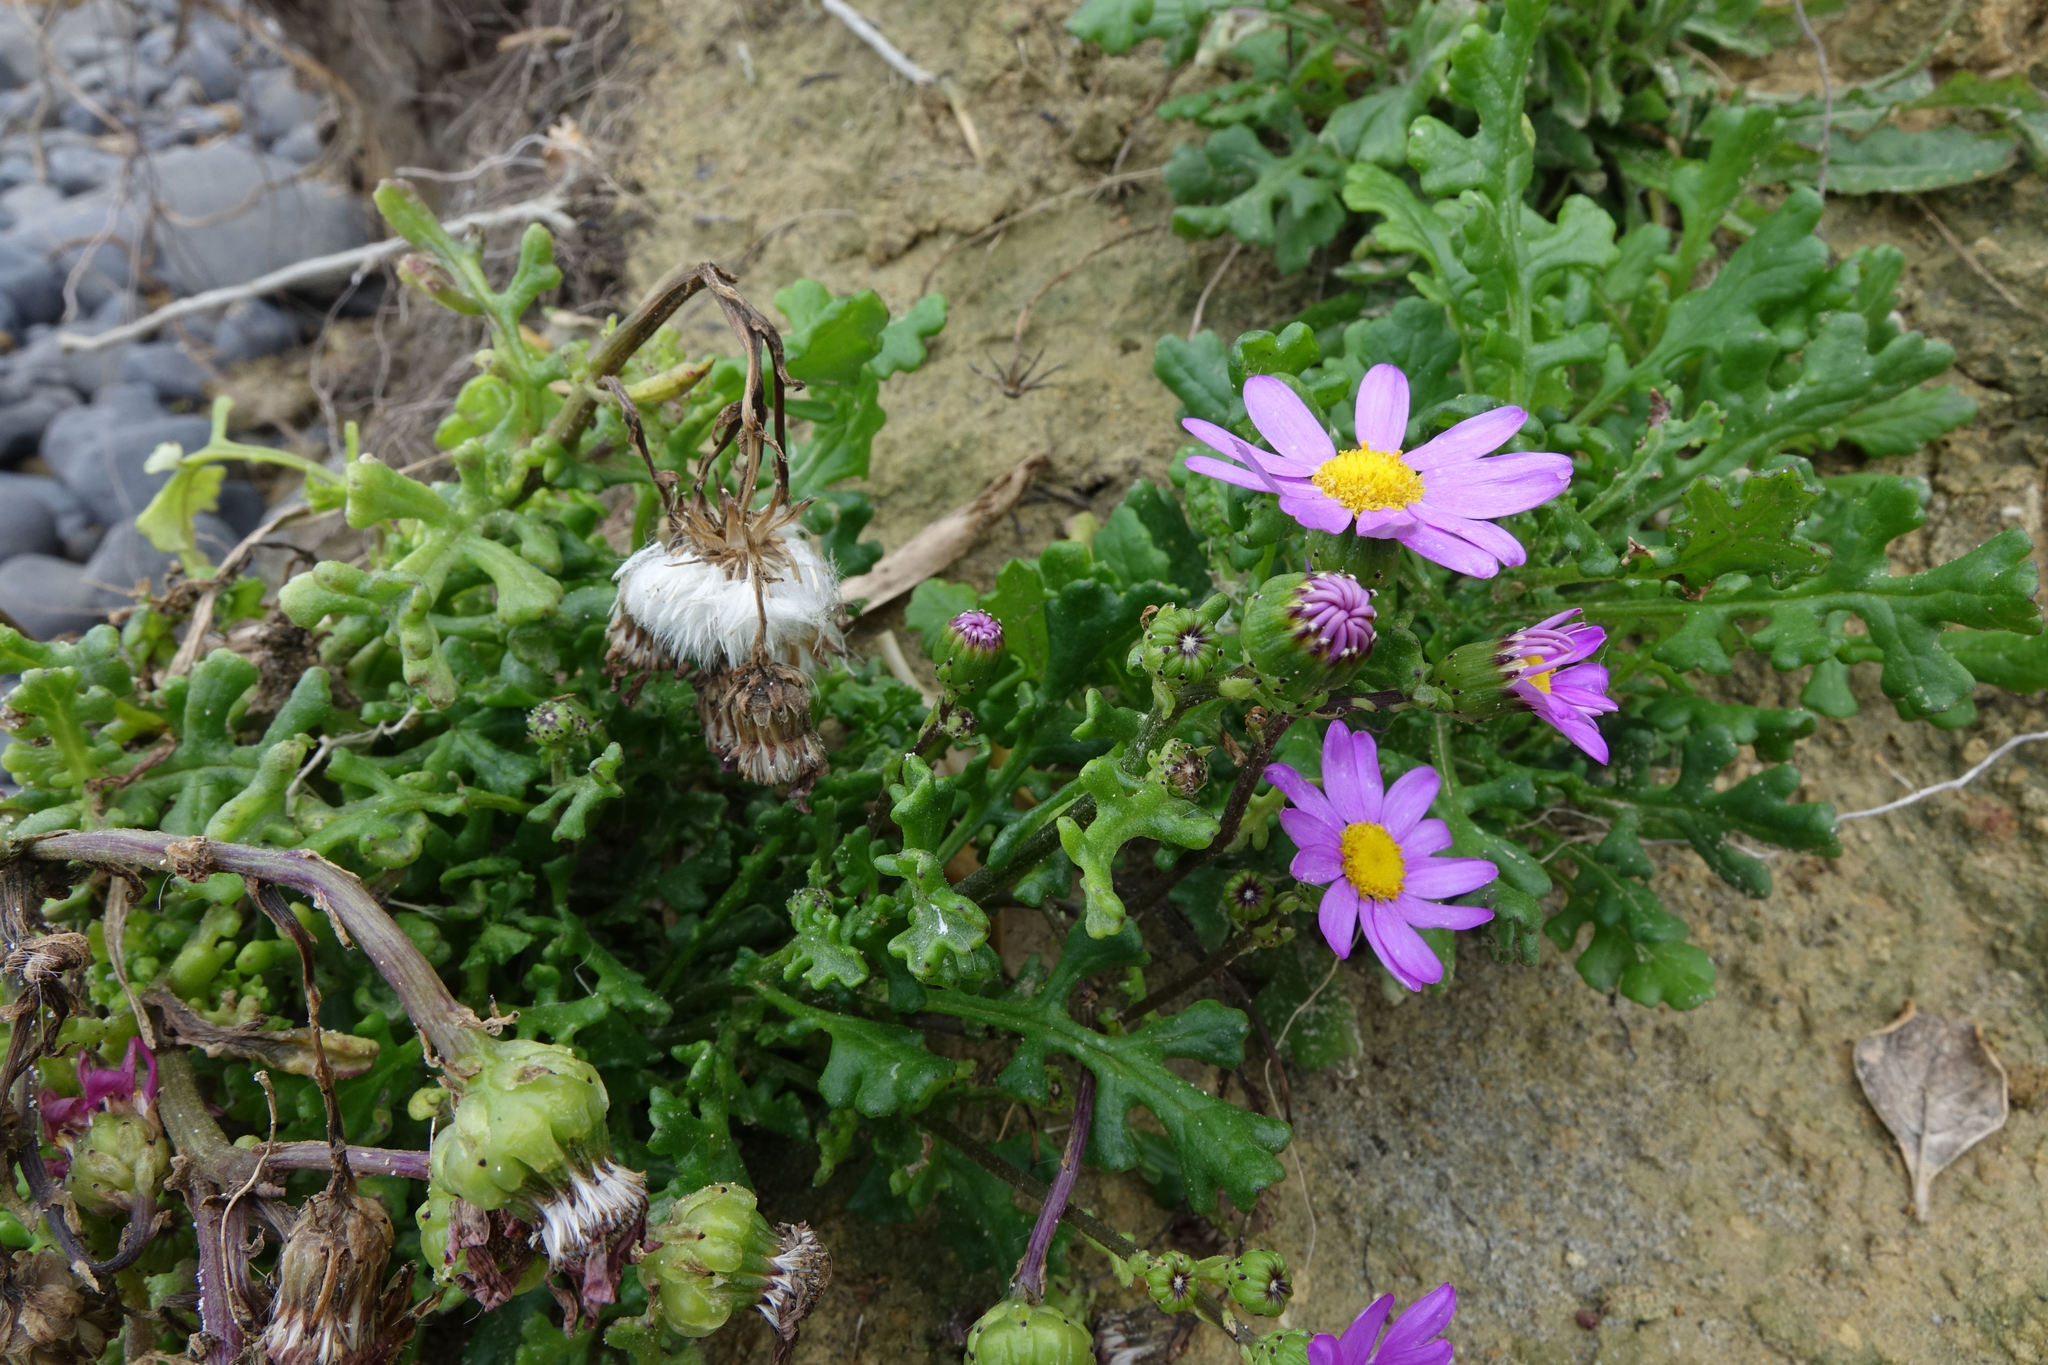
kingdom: Plantae
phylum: Tracheophyta
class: Magnoliopsida
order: Asterales
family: Asteraceae
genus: Senecio
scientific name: Senecio elegans
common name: Purple groundsel
